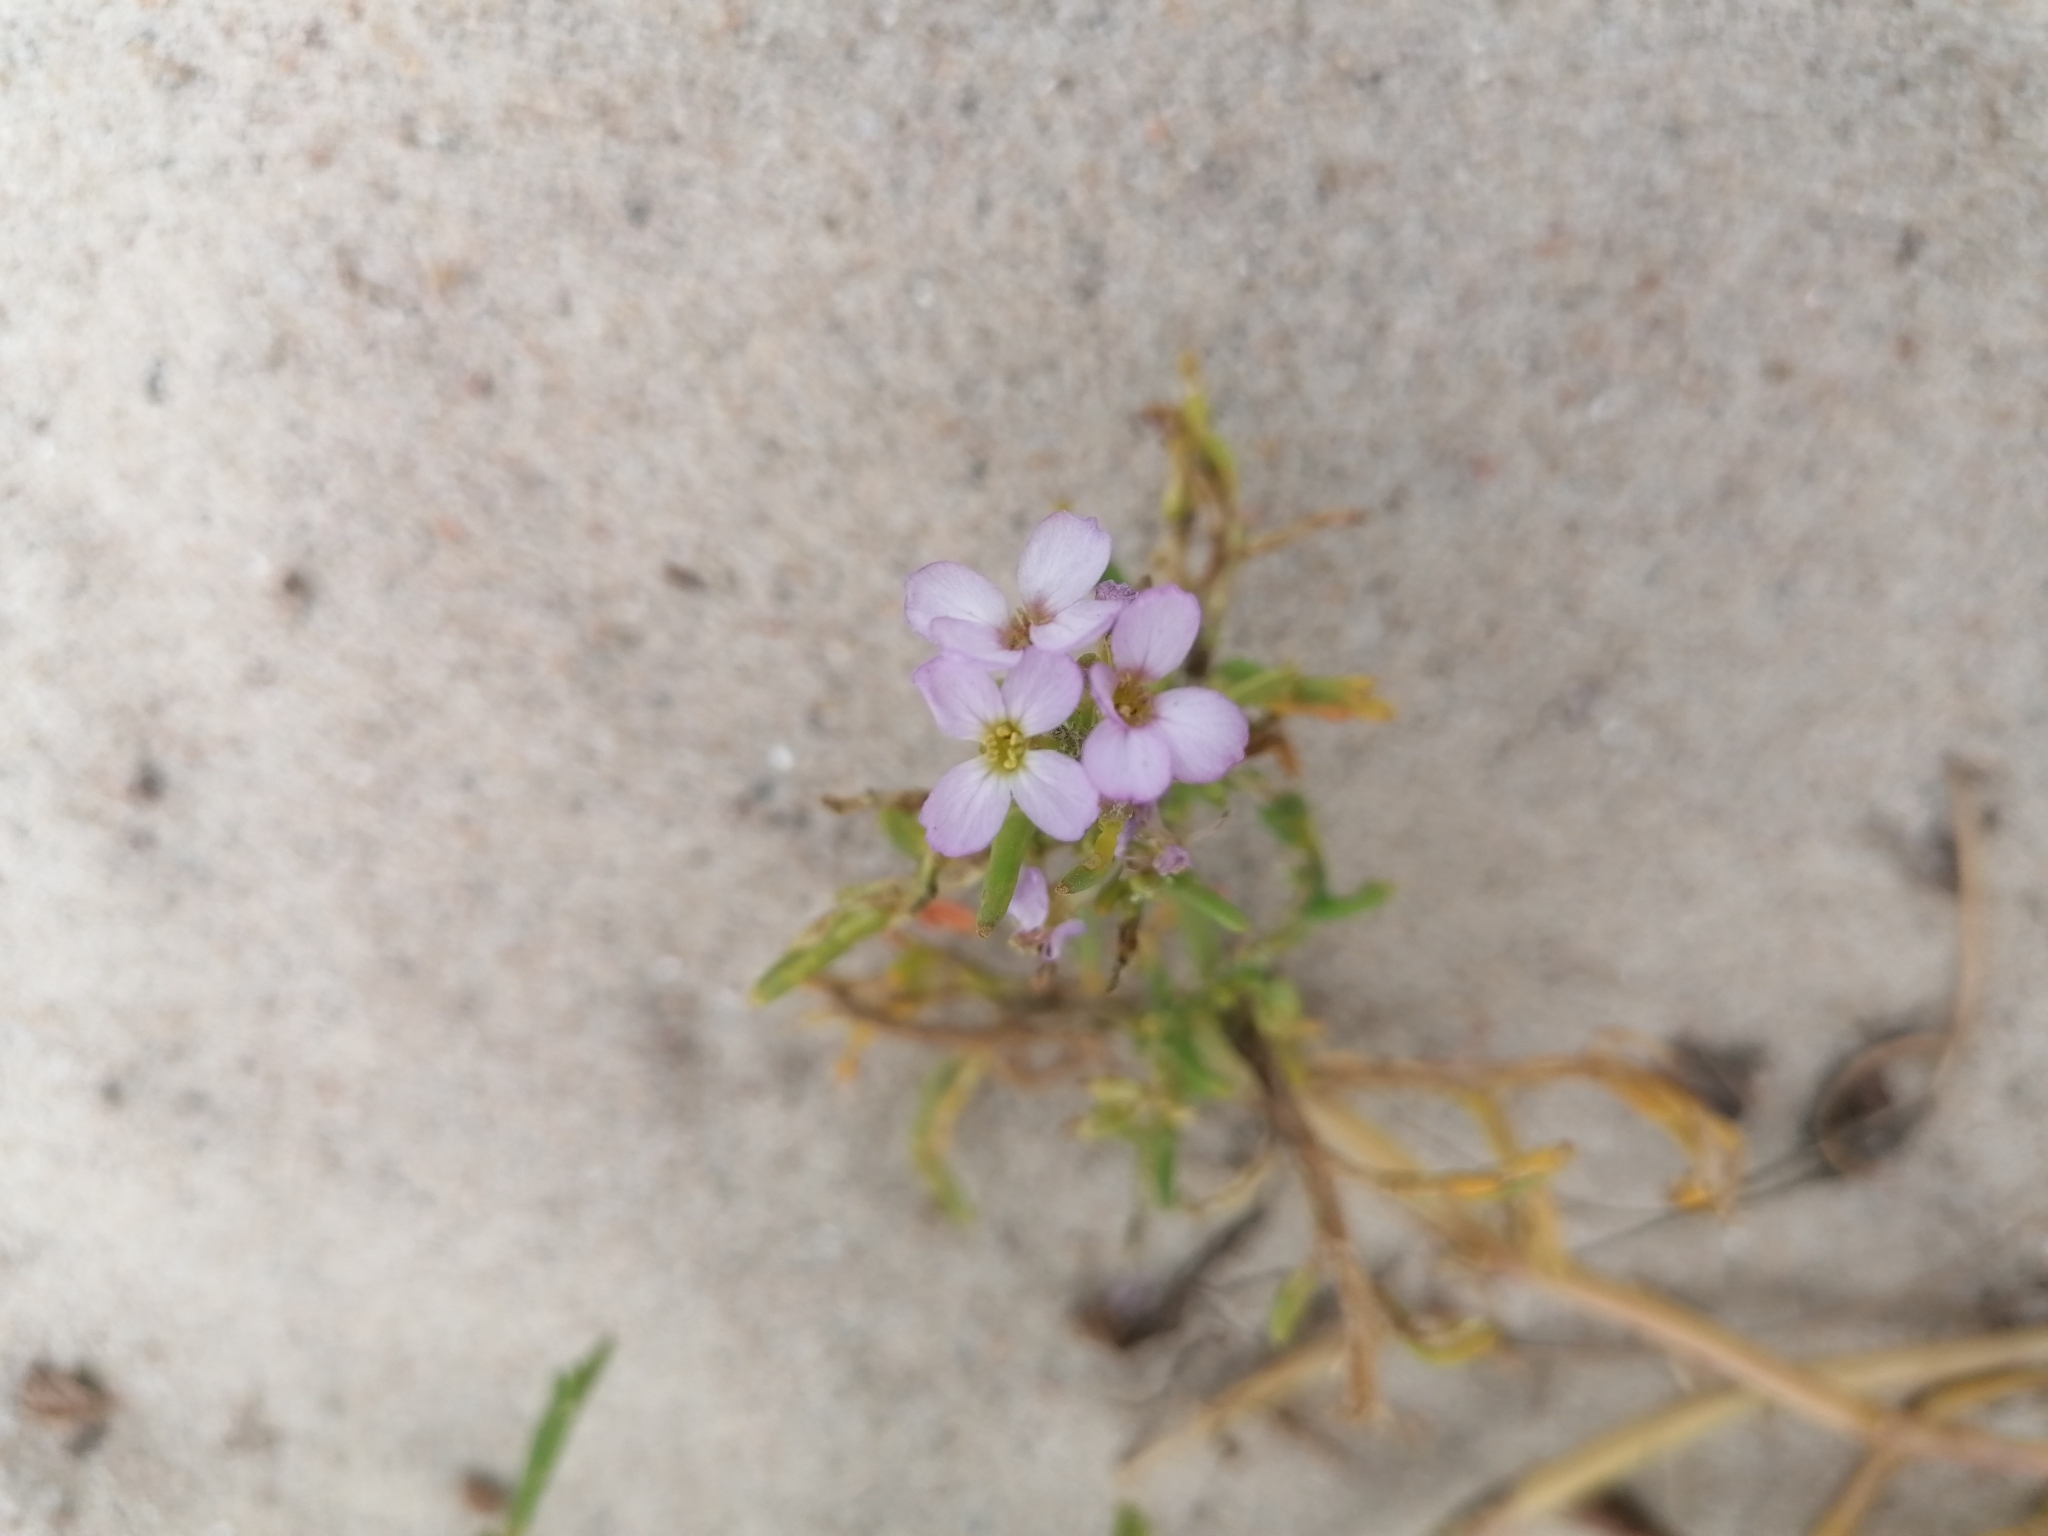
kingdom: Plantae
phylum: Tracheophyta
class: Magnoliopsida
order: Brassicales
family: Brassicaceae
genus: Cakile
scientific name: Cakile maritima
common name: Sea rocket
